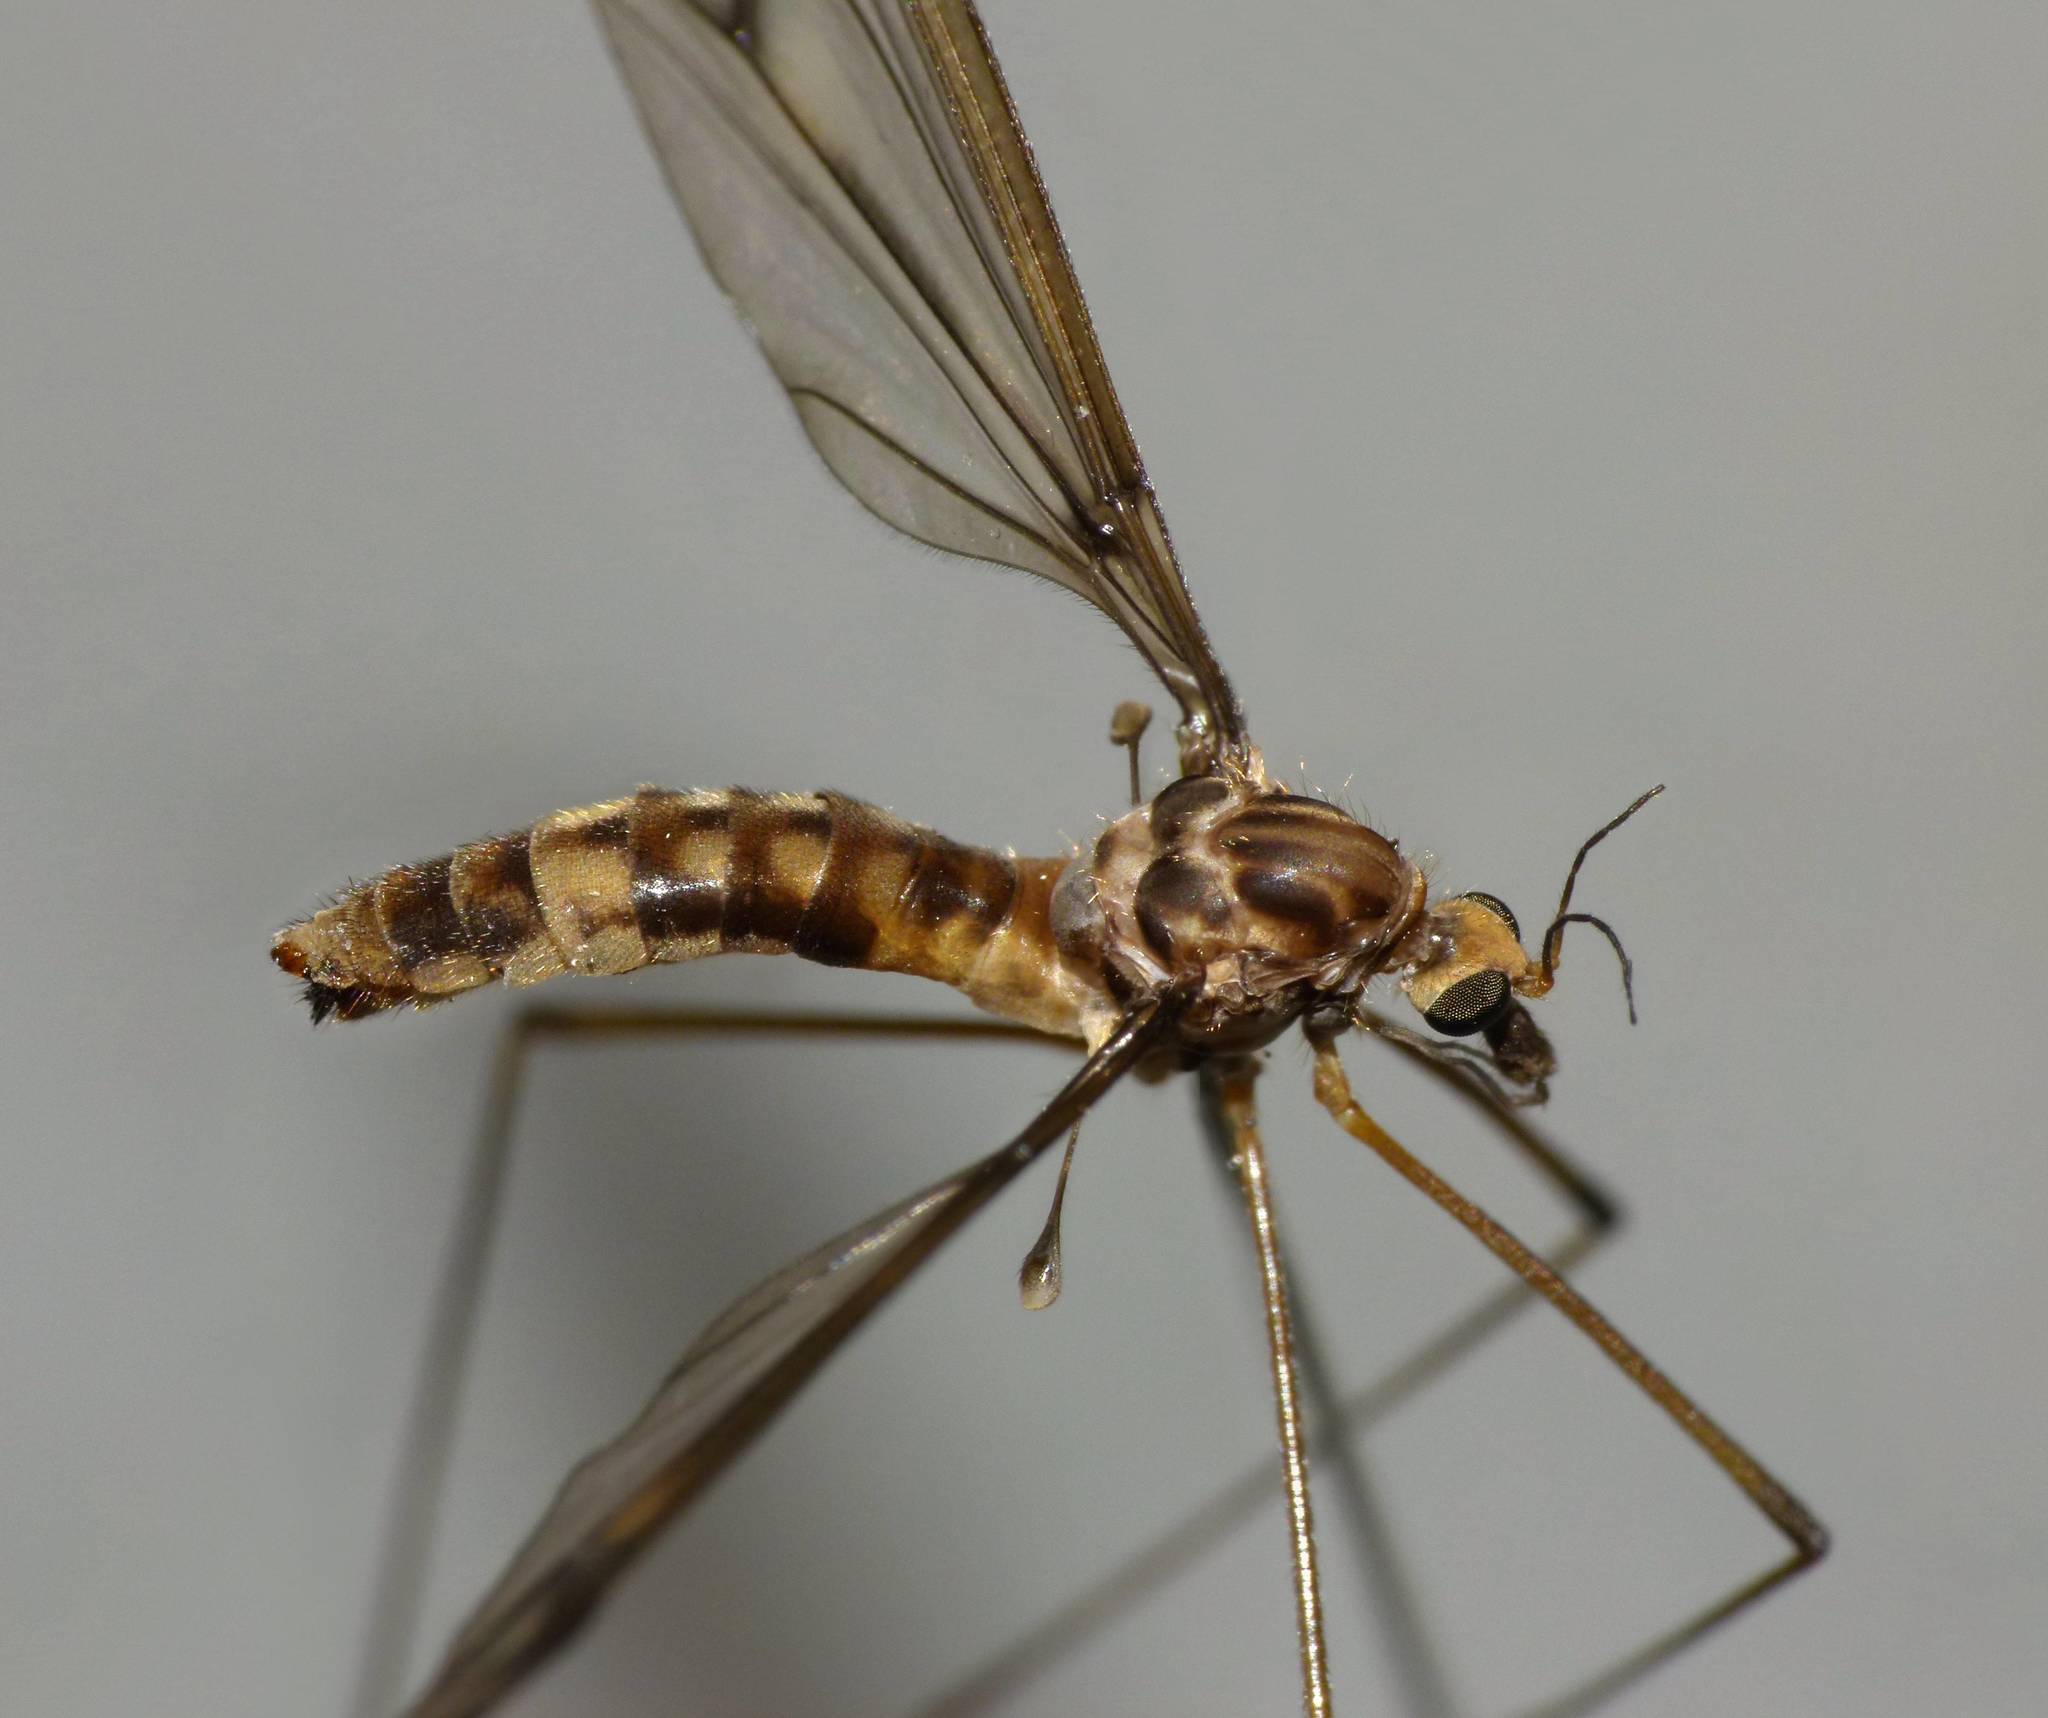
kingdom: Animalia
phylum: Arthropoda
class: Insecta
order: Diptera
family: Tipulidae
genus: Leptotarsus
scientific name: Leptotarsus cubitalis
